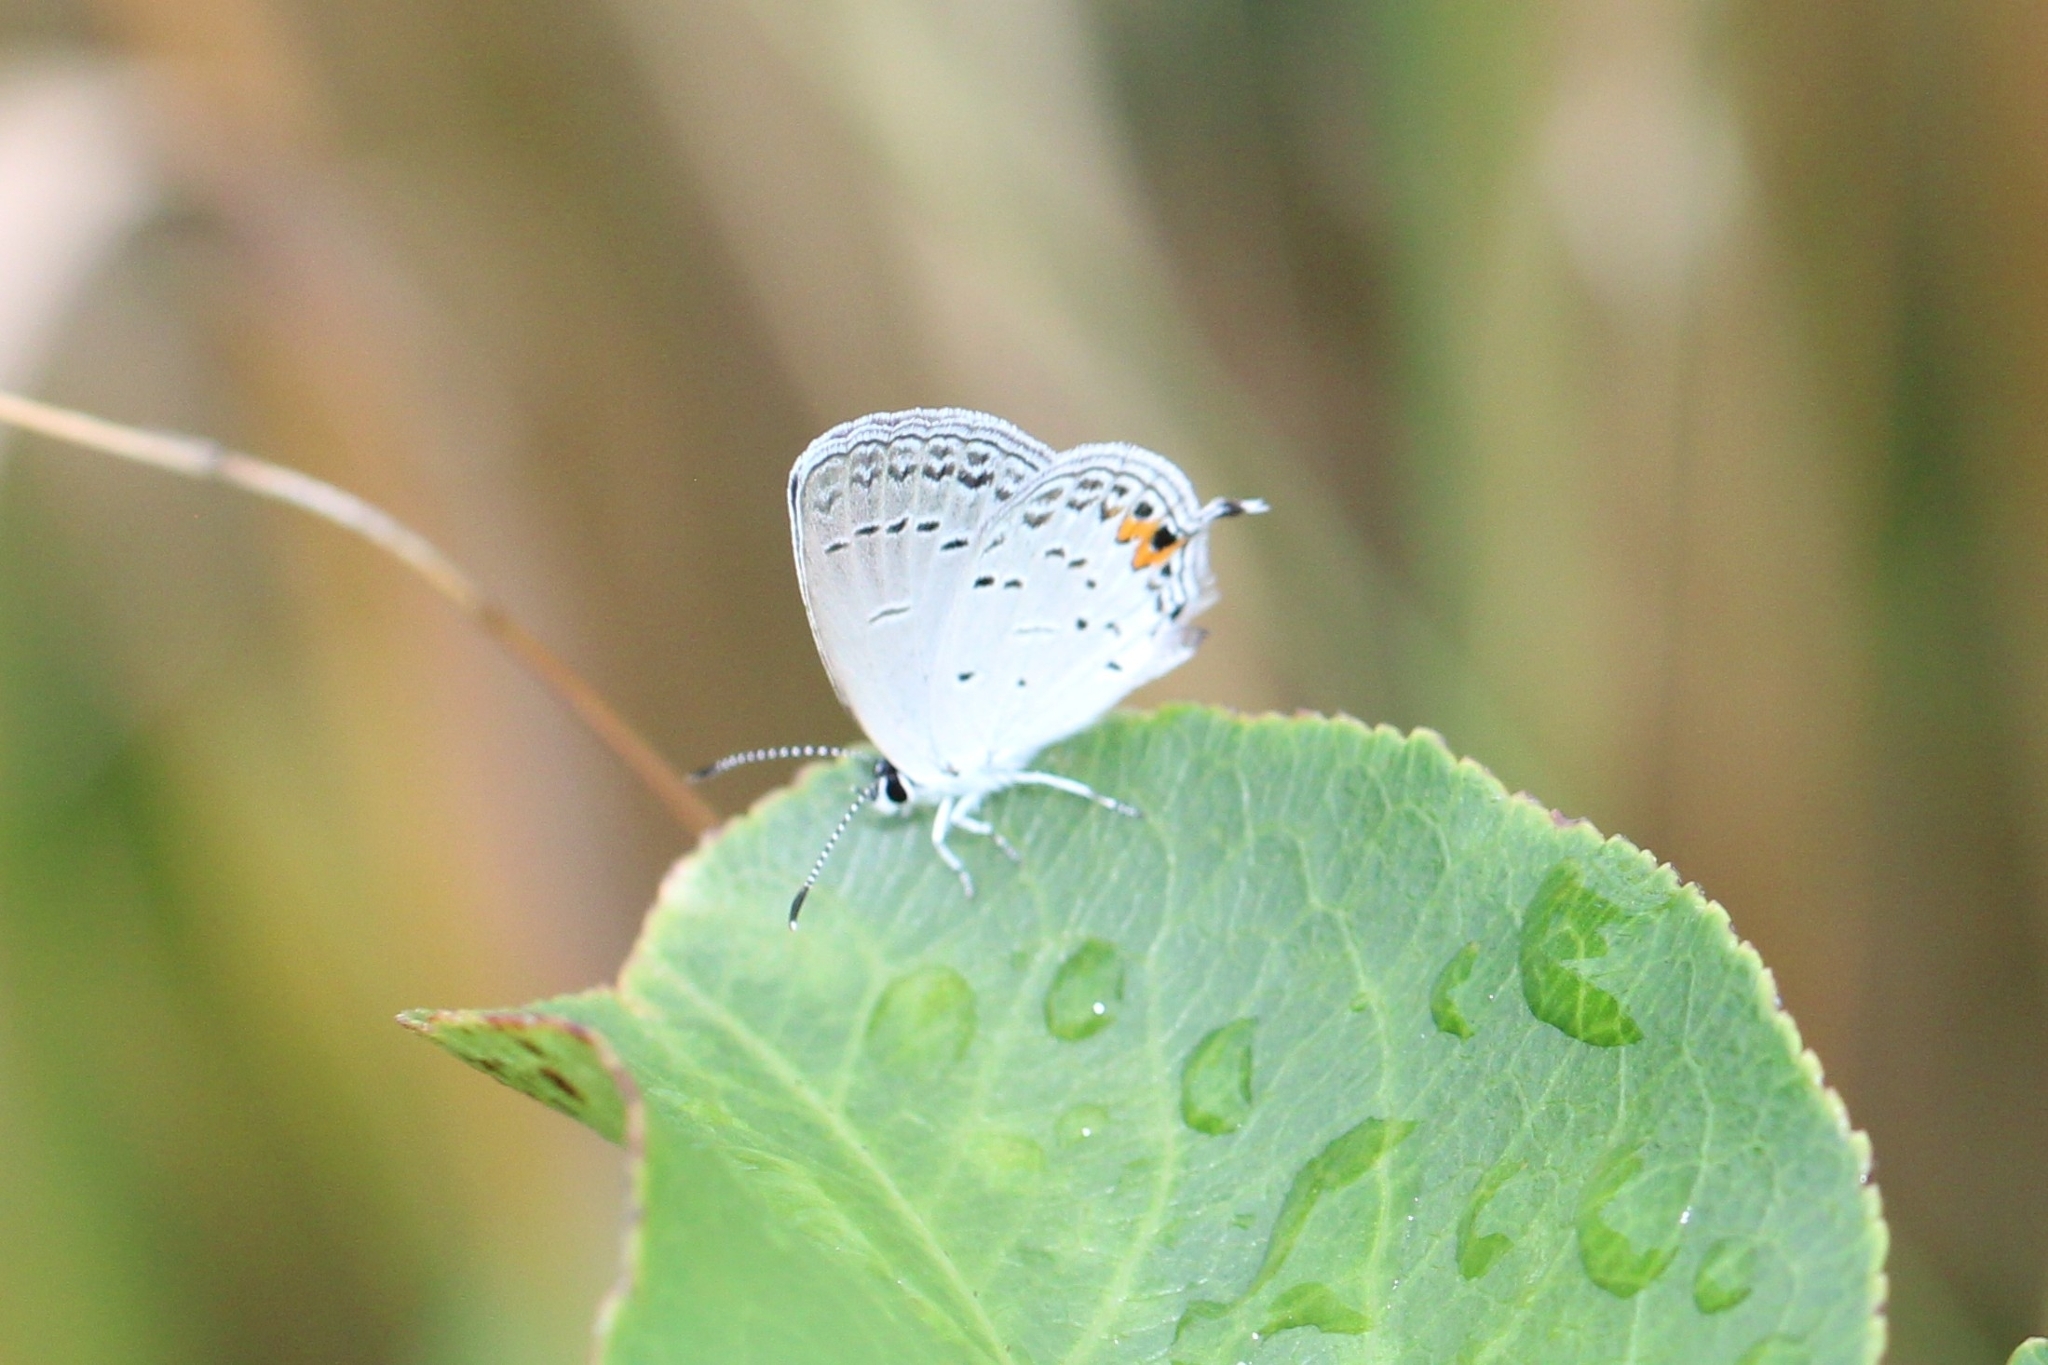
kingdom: Animalia
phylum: Arthropoda
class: Insecta
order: Lepidoptera
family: Lycaenidae
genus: Elkalyce
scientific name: Elkalyce comyntas
